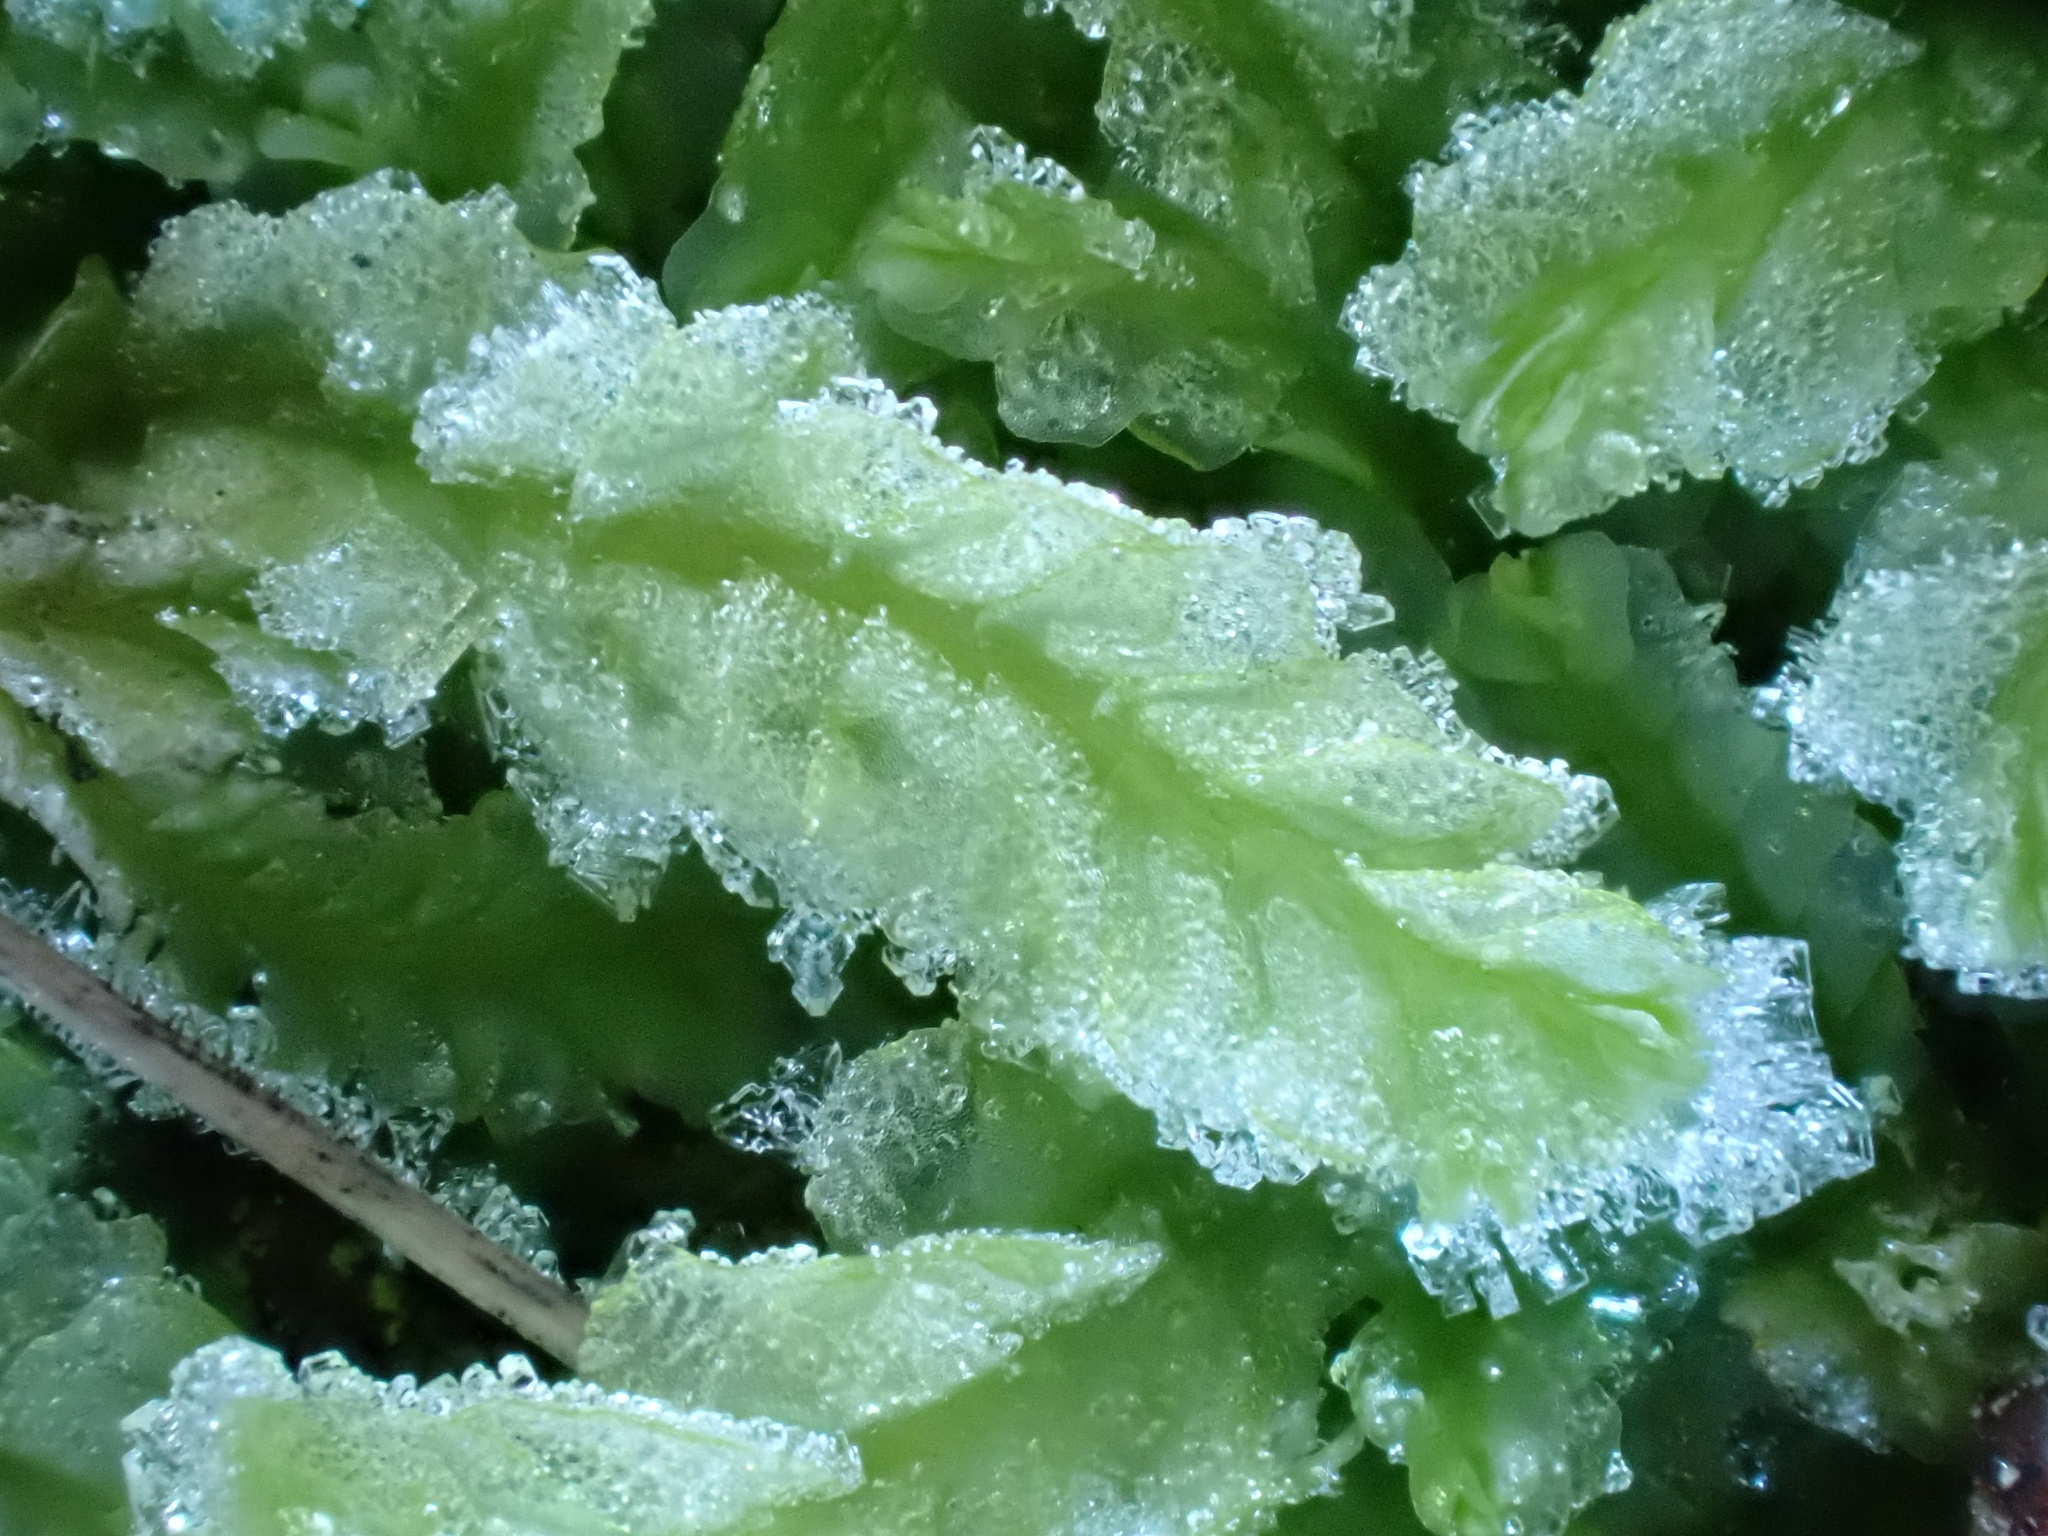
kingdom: Plantae
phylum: Marchantiophyta
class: Jungermanniopsida
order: Jungermanniales
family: Lophocoleaceae
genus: Lophocolea
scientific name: Lophocolea semiteres
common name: Southern crestwort
